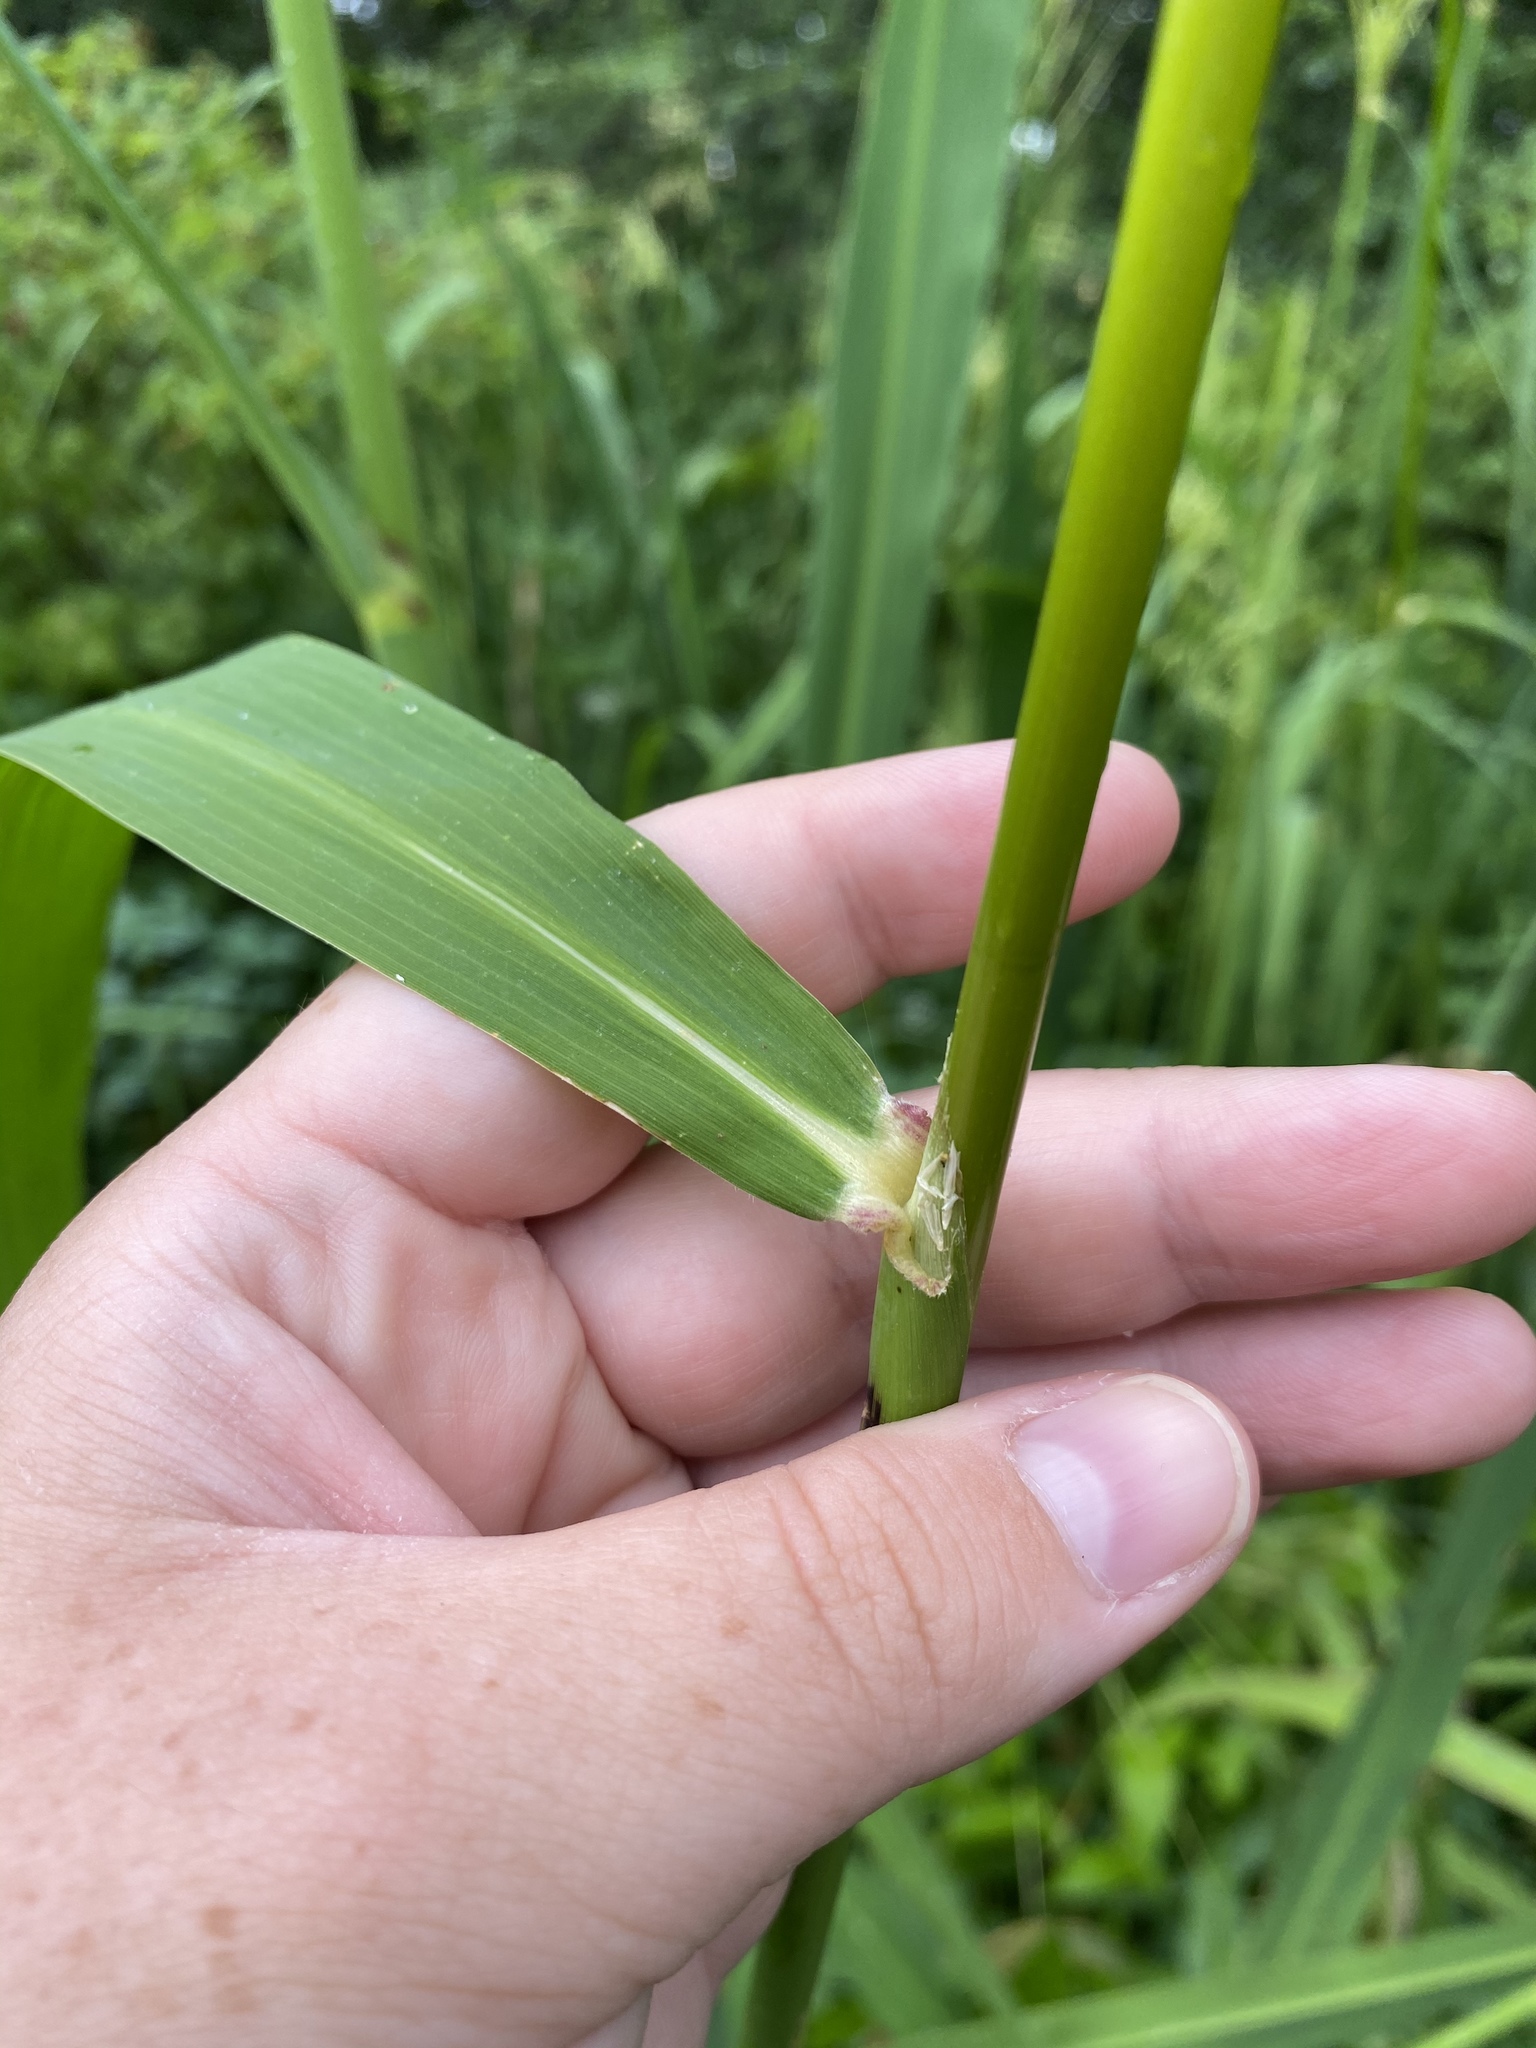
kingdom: Plantae
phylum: Tracheophyta
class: Liliopsida
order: Poales
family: Poaceae
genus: Zizania
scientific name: Zizania aquatica
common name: Annual wildrice
